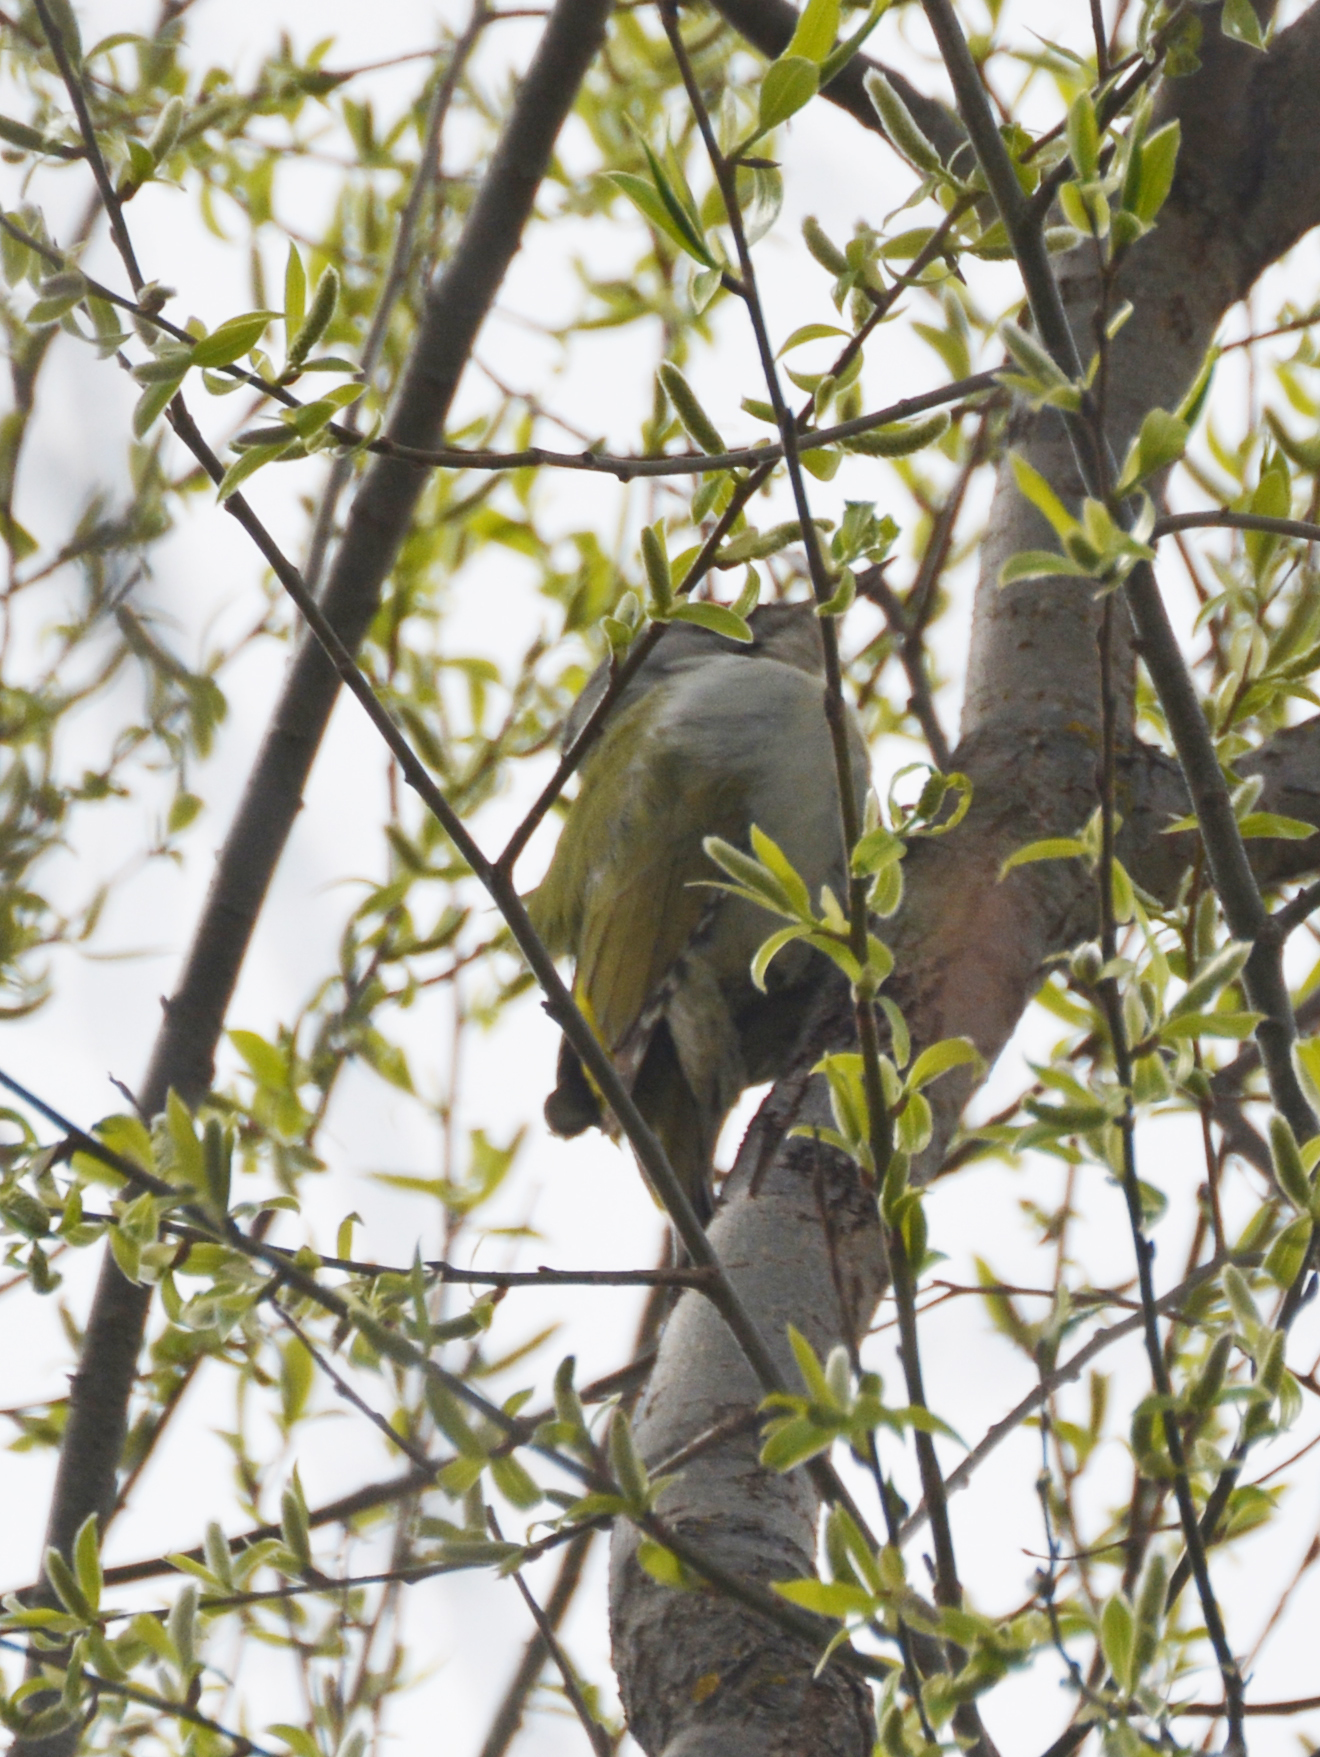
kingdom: Animalia
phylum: Chordata
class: Aves
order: Piciformes
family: Picidae
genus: Picus
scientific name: Picus canus
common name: Grey-headed woodpecker
